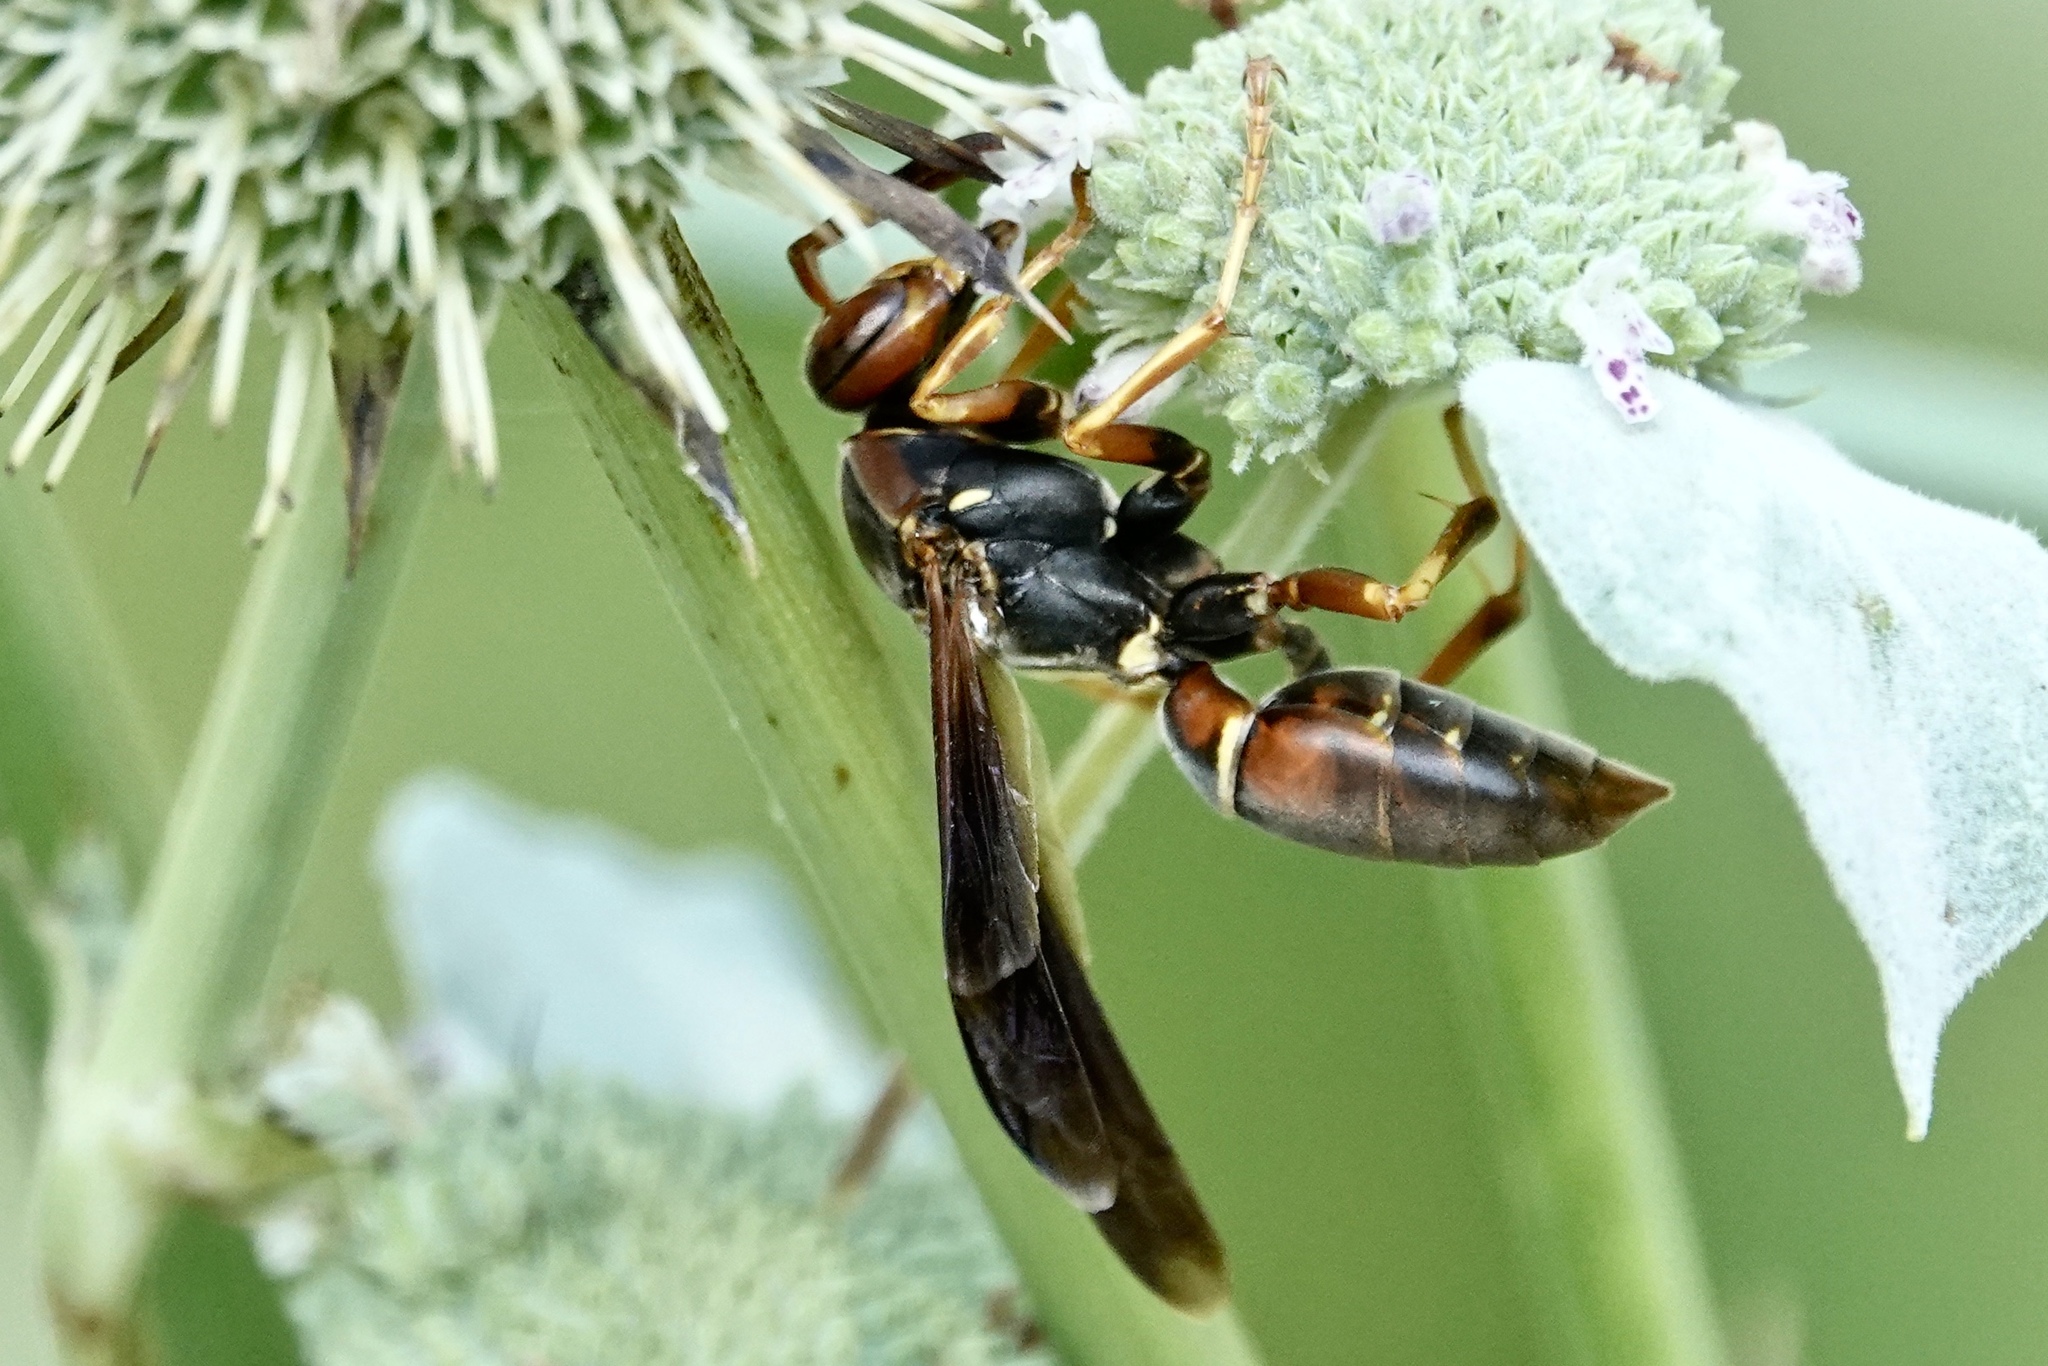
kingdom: Animalia
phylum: Arthropoda
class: Insecta
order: Hymenoptera
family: Eumenidae
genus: Polistes
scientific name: Polistes fuscatus
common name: Dark paper wasp
